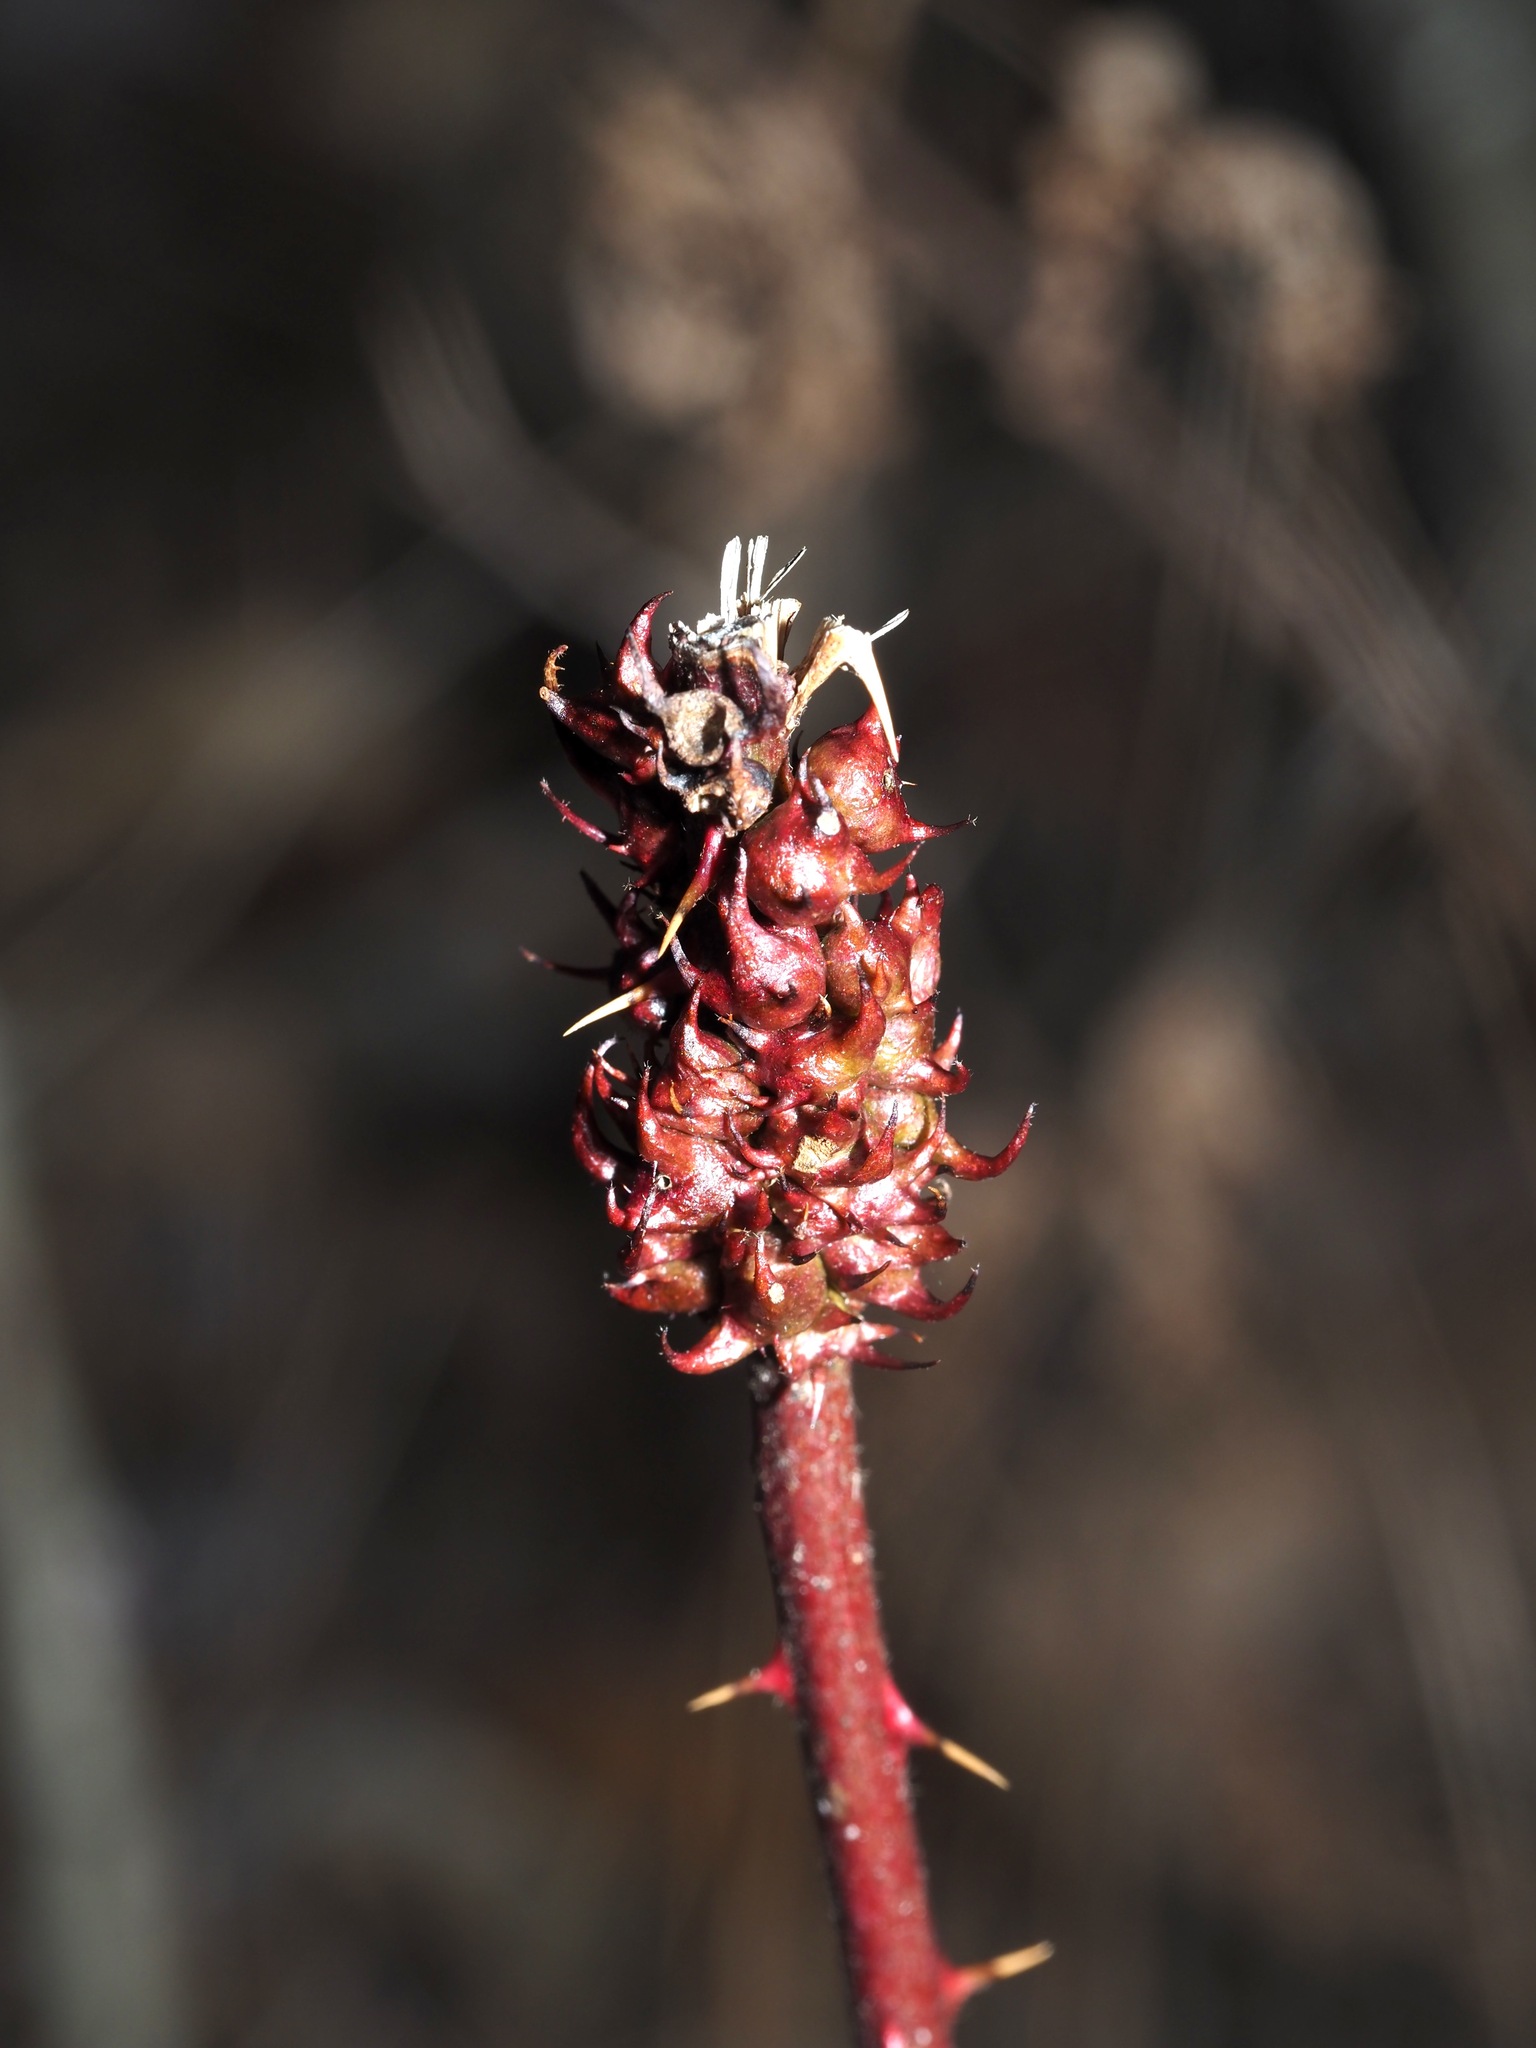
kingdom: Animalia
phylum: Arthropoda
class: Insecta
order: Hymenoptera
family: Cynipidae
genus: Diastrophus
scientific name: Diastrophus
